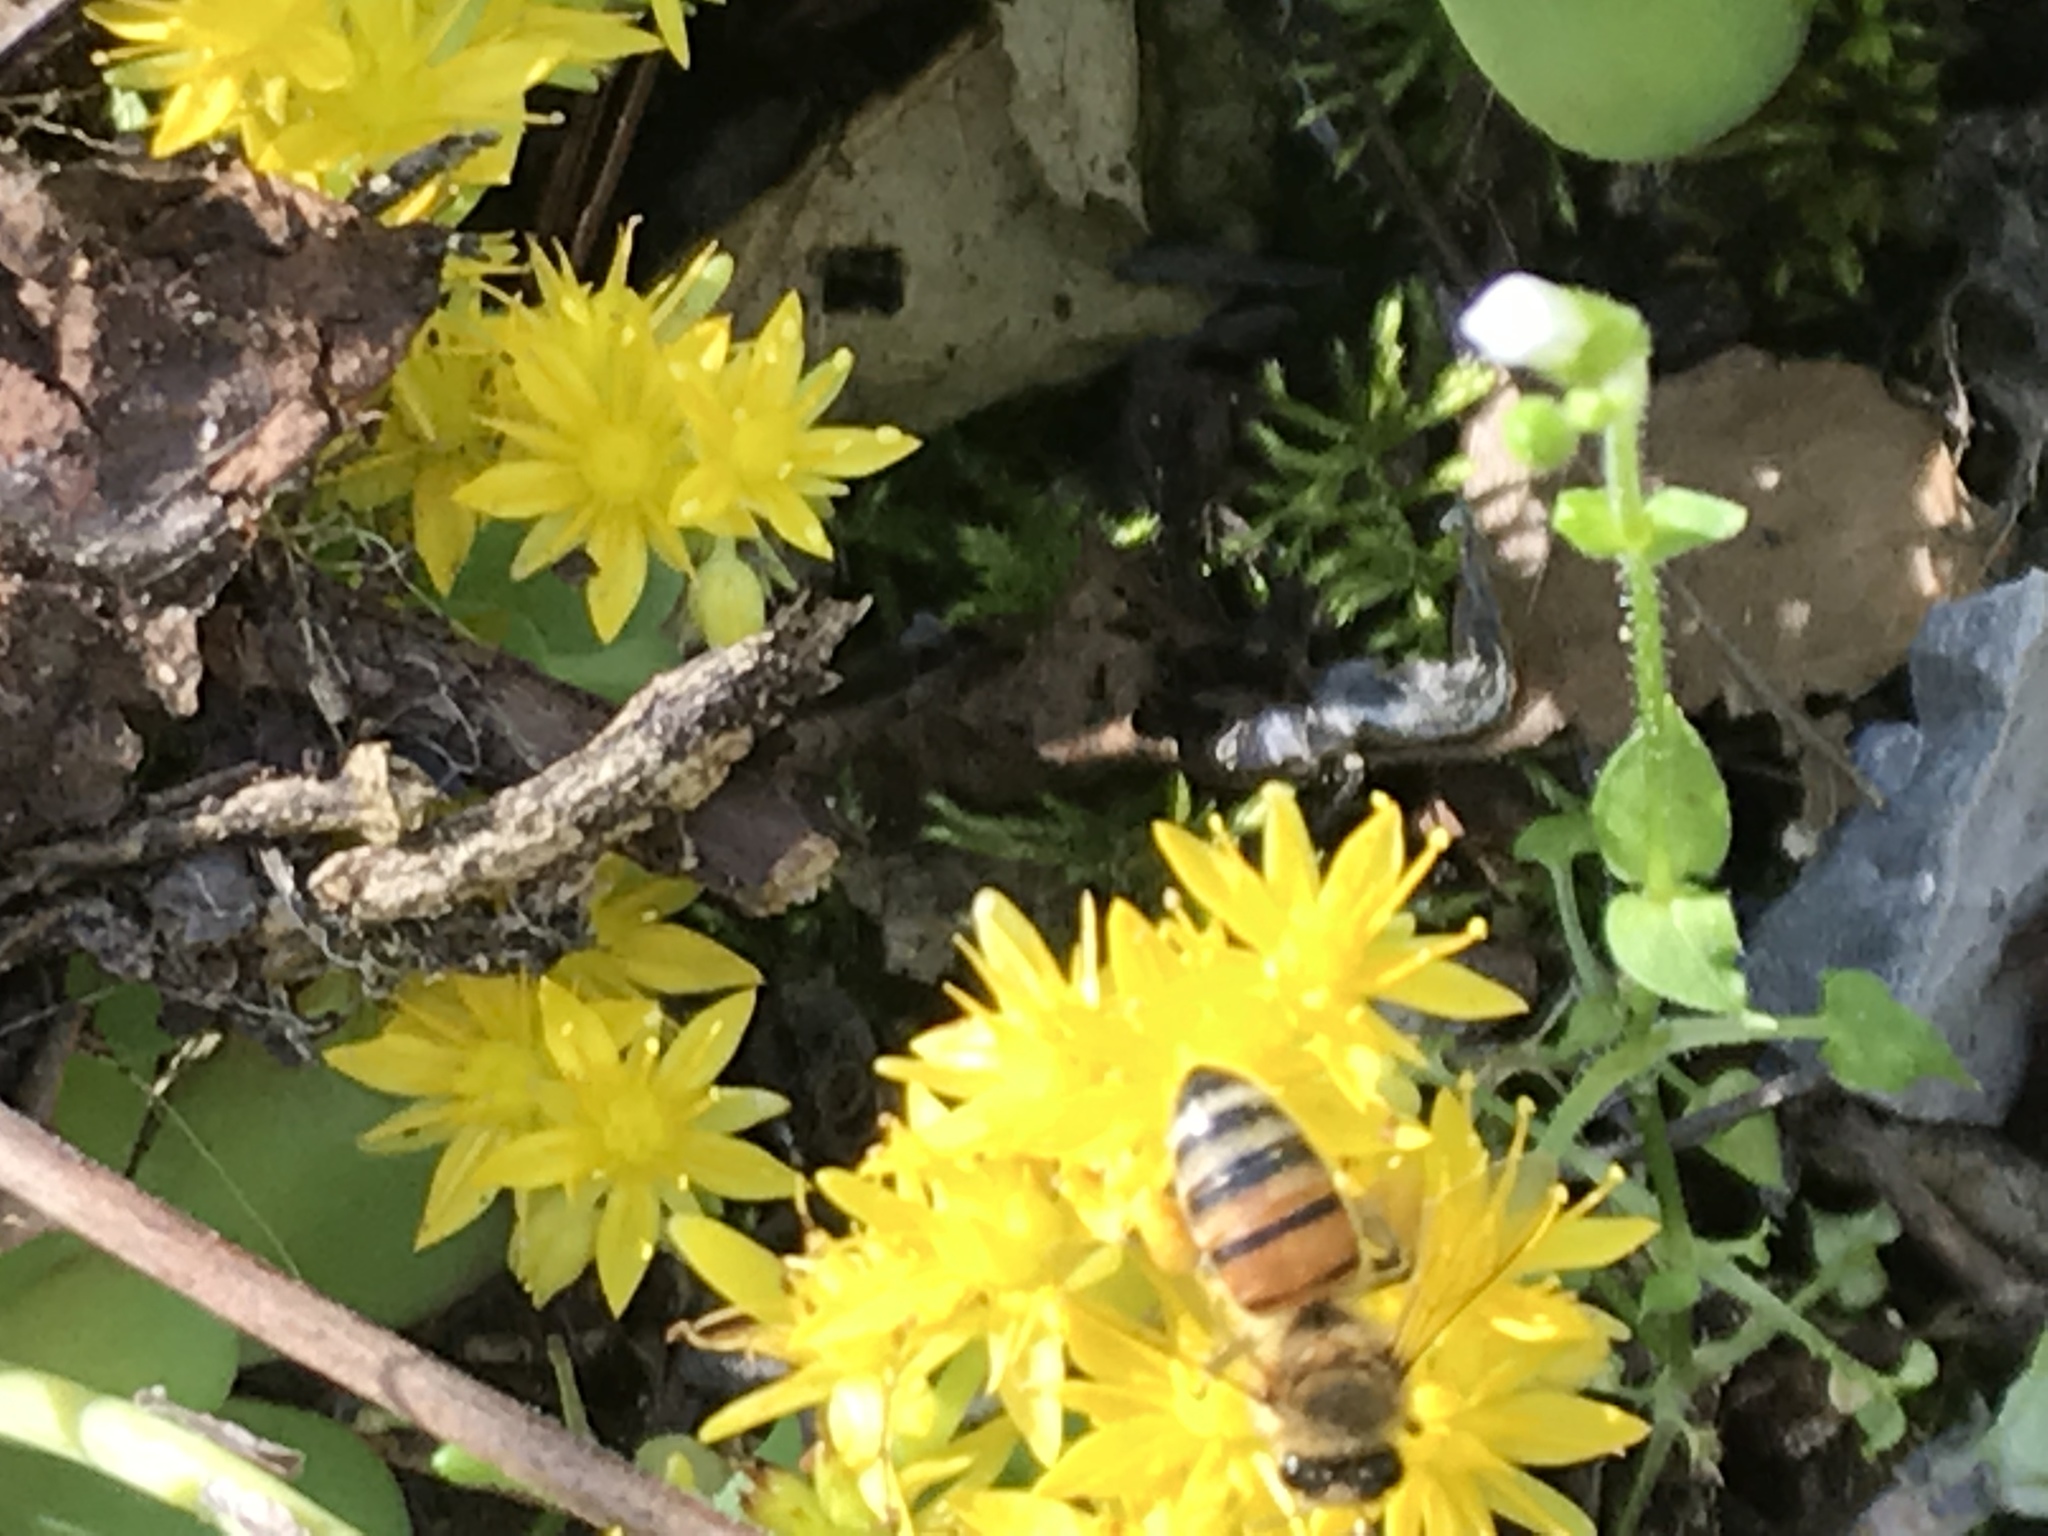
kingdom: Animalia
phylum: Arthropoda
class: Insecta
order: Hymenoptera
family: Apidae
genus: Apis
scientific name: Apis mellifera
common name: Honey bee
